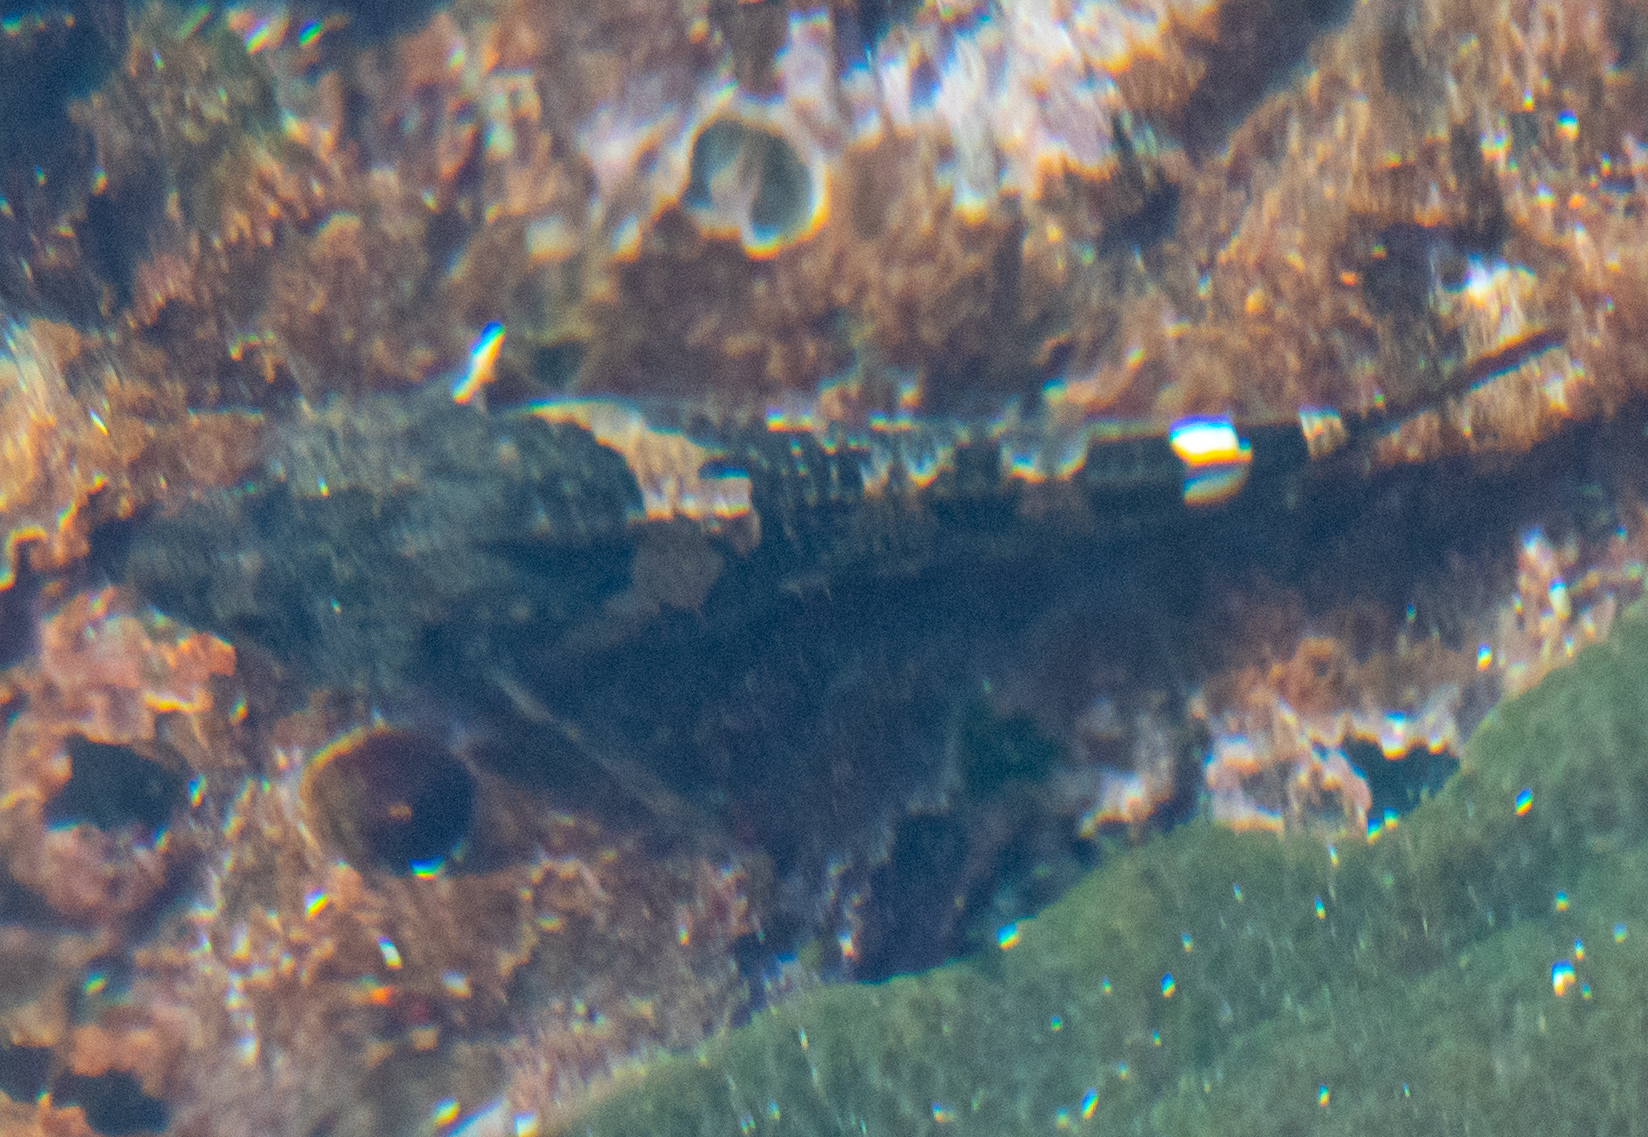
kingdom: Animalia
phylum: Chordata
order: Scorpaeniformes
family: Cottidae
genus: Oligocottus
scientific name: Oligocottus maculosus
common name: Tidepool sculpin
